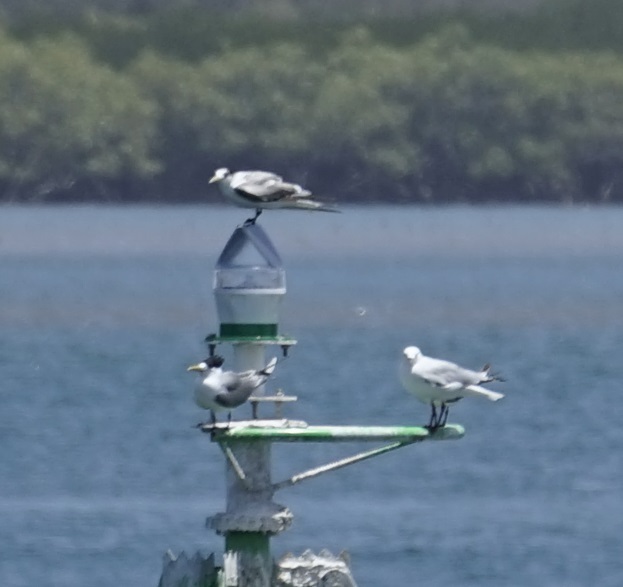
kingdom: Animalia
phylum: Chordata
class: Aves
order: Charadriiformes
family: Laridae
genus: Chroicocephalus
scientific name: Chroicocephalus novaehollandiae
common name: Silver gull
